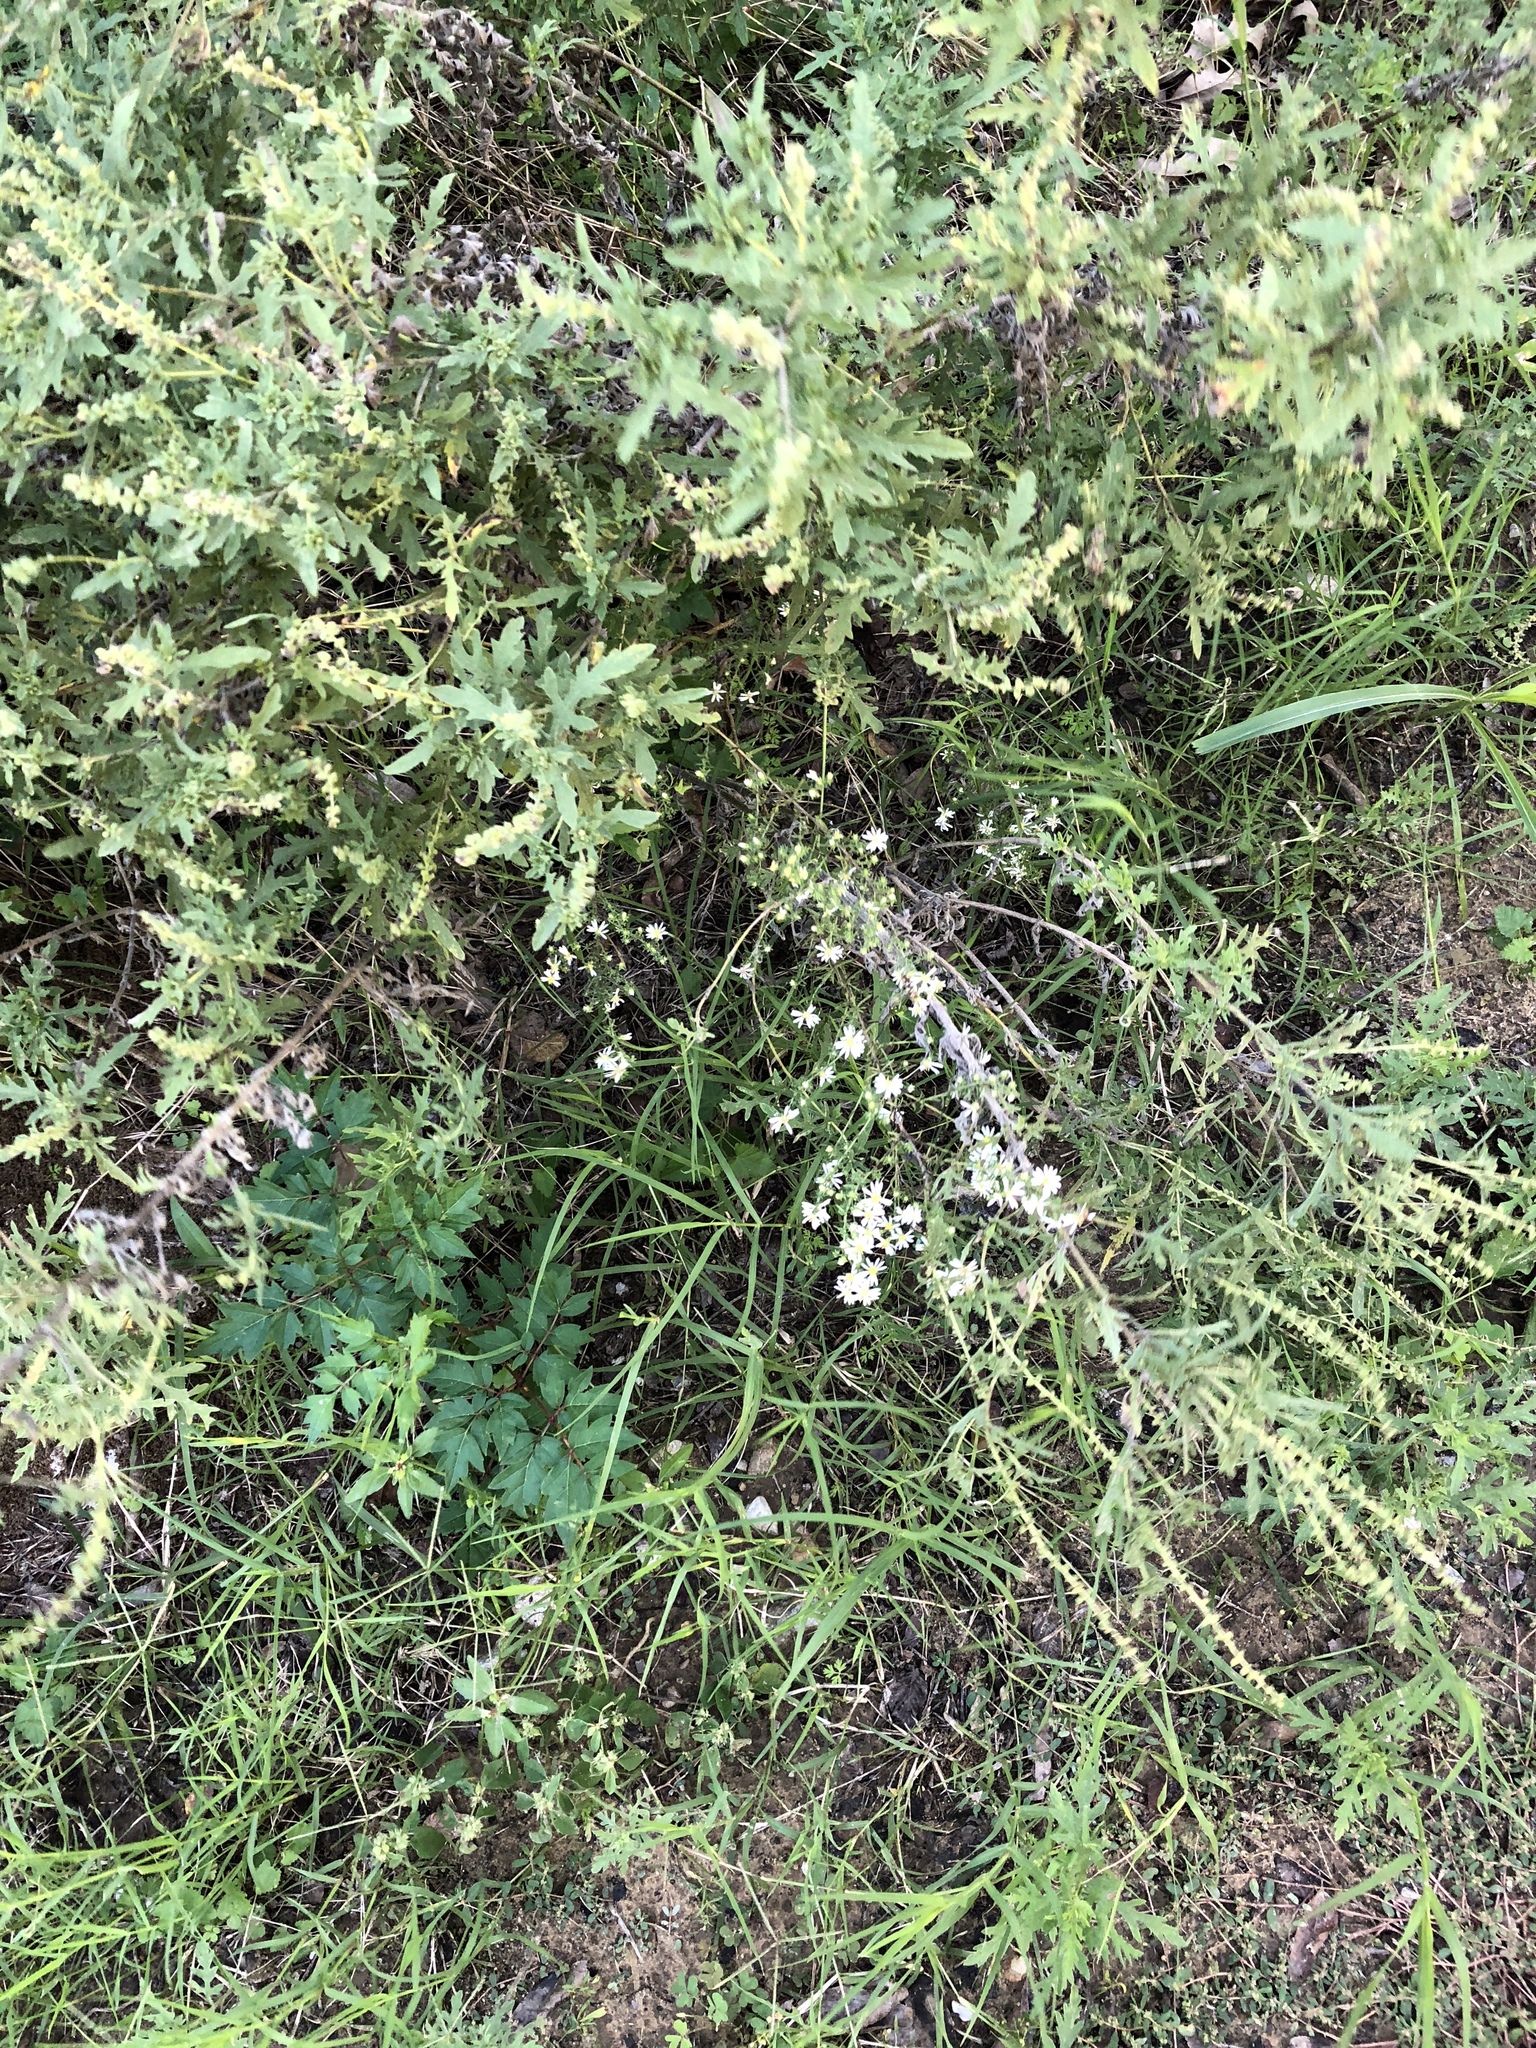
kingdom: Plantae
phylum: Tracheophyta
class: Magnoliopsida
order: Asterales
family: Asteraceae
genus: Symphyotrichum
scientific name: Symphyotrichum ericoides
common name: Heath aster
